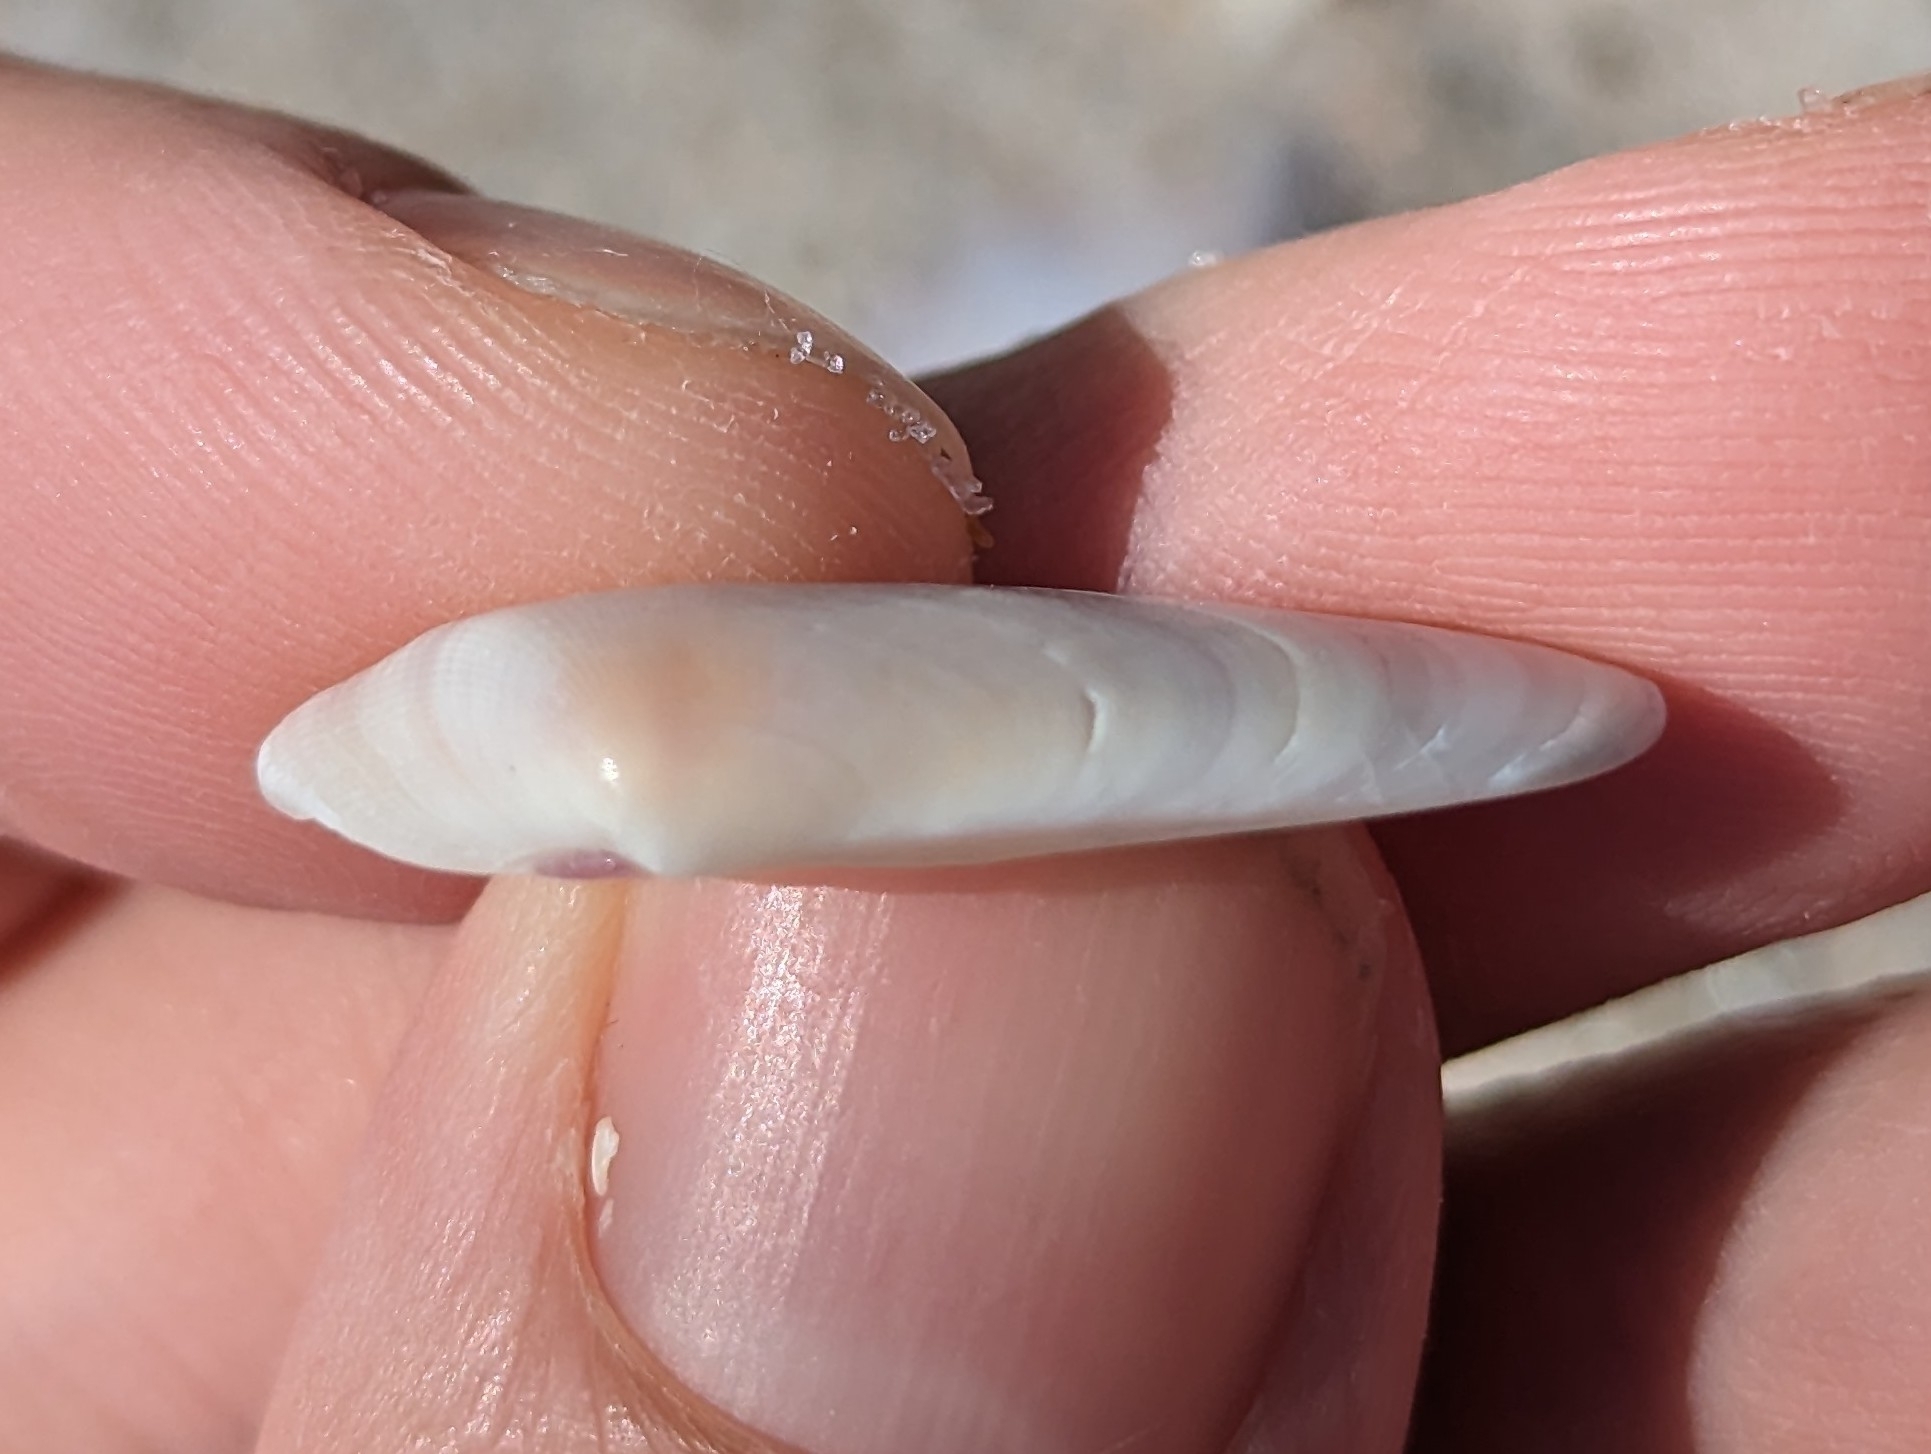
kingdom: Animalia
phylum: Mollusca
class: Bivalvia
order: Cardiida
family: Donacidae
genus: Donax
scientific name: Donax variabilis
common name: Butterfly shell
